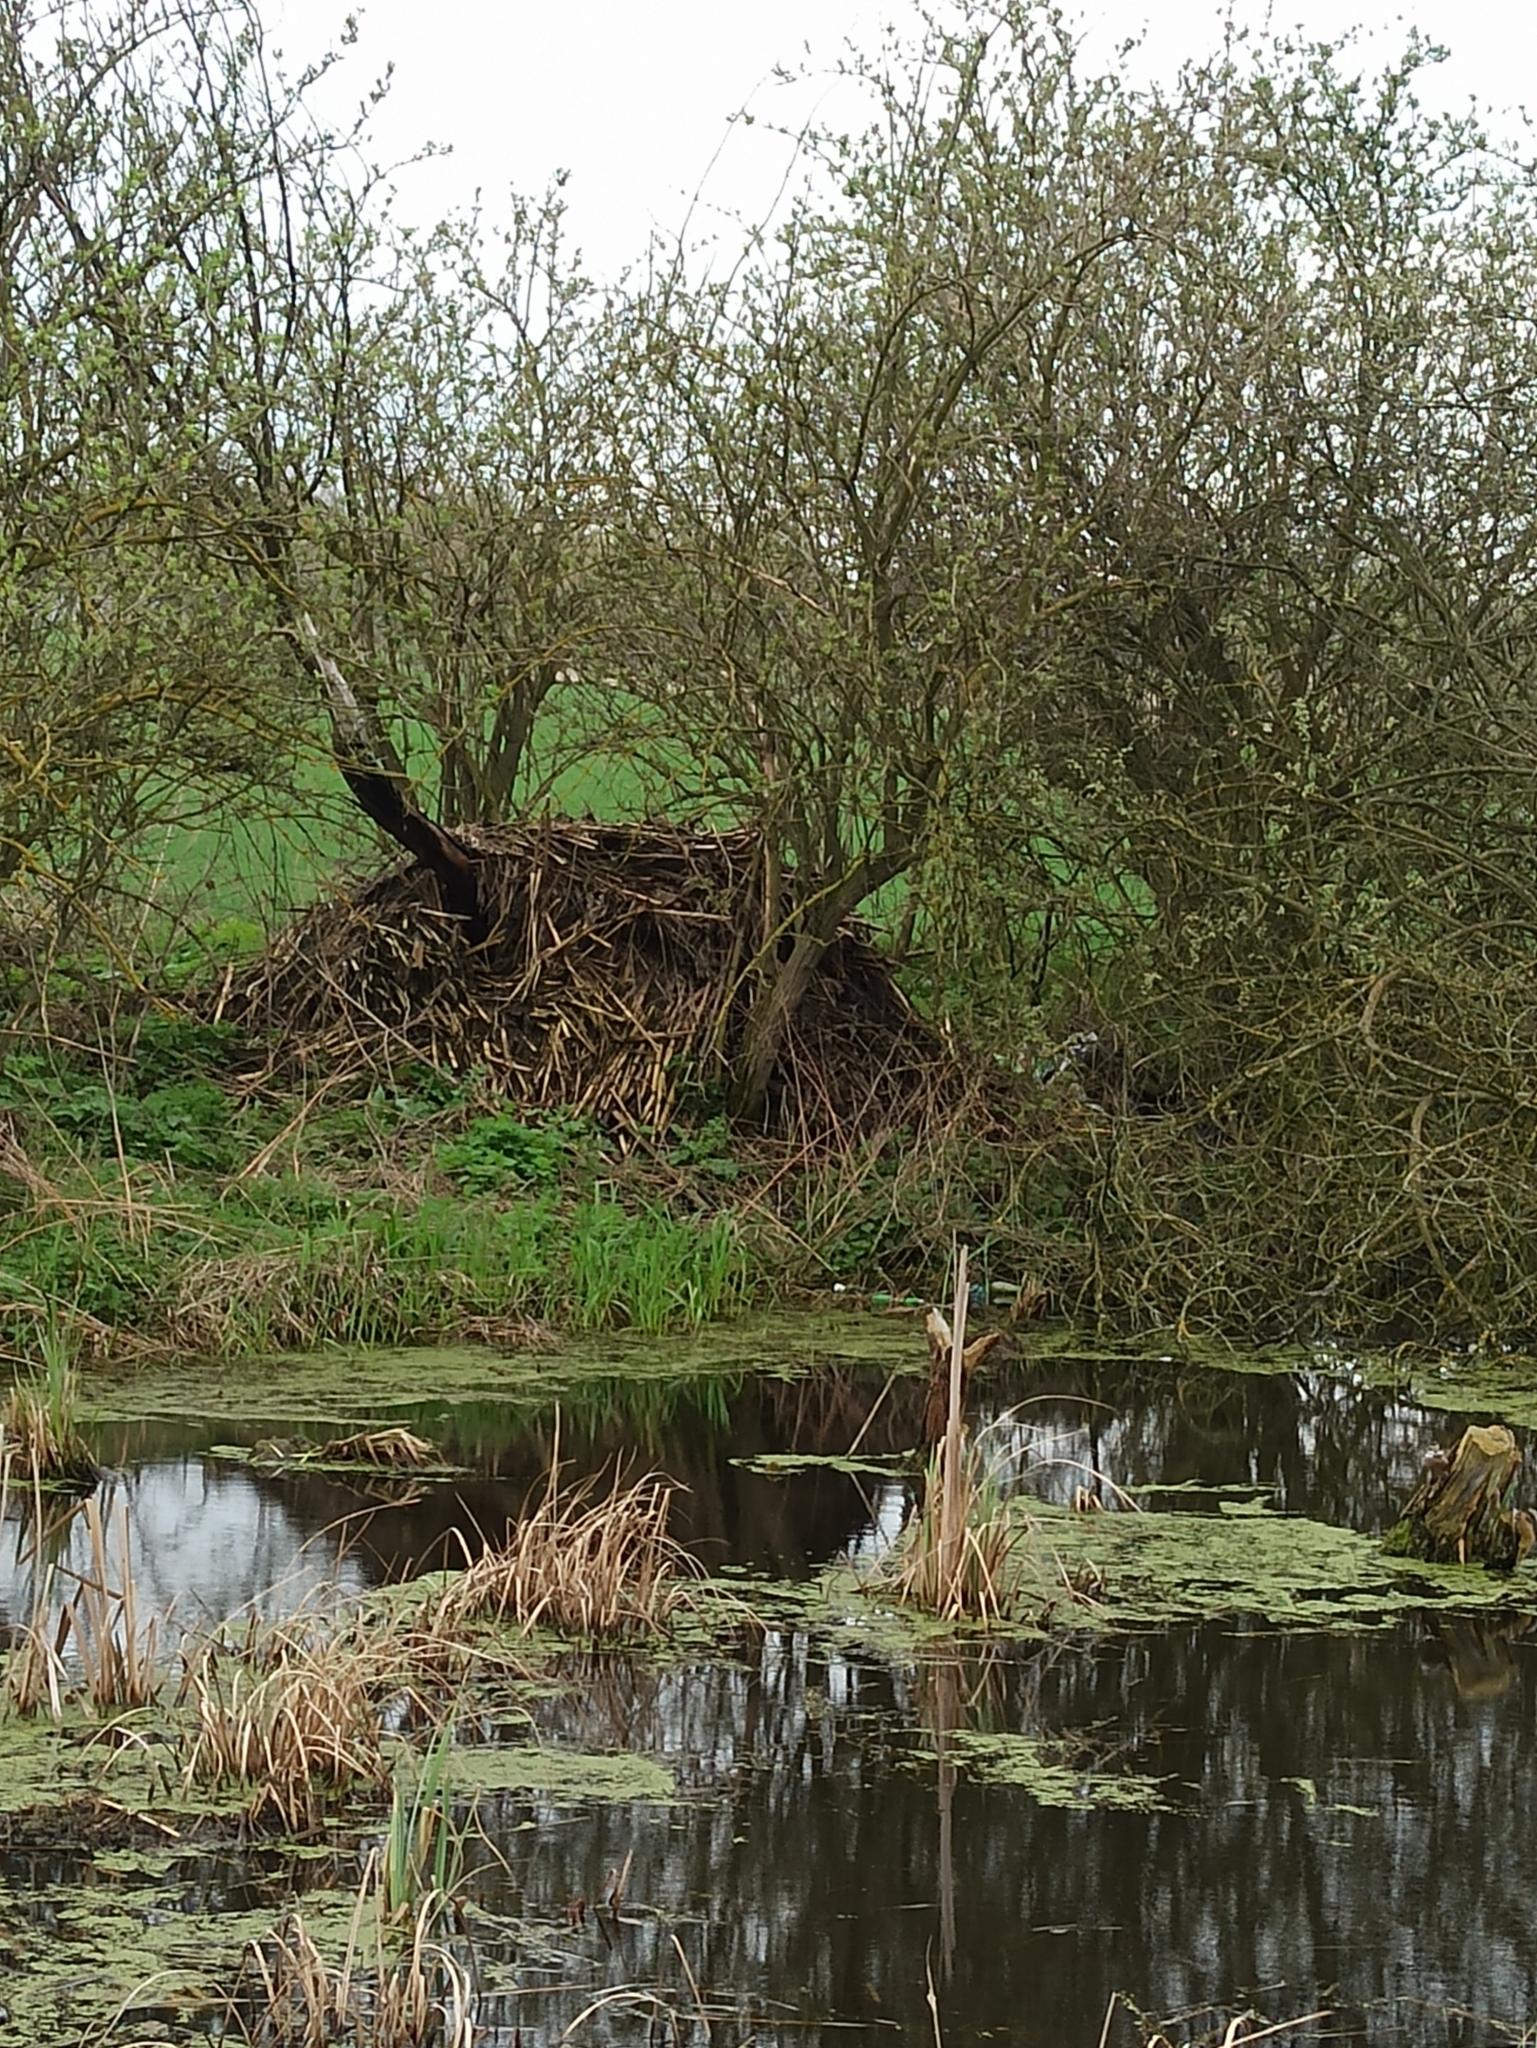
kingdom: Animalia
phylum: Chordata
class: Mammalia
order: Rodentia
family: Castoridae
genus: Castor
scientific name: Castor fiber
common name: Eurasian beaver
